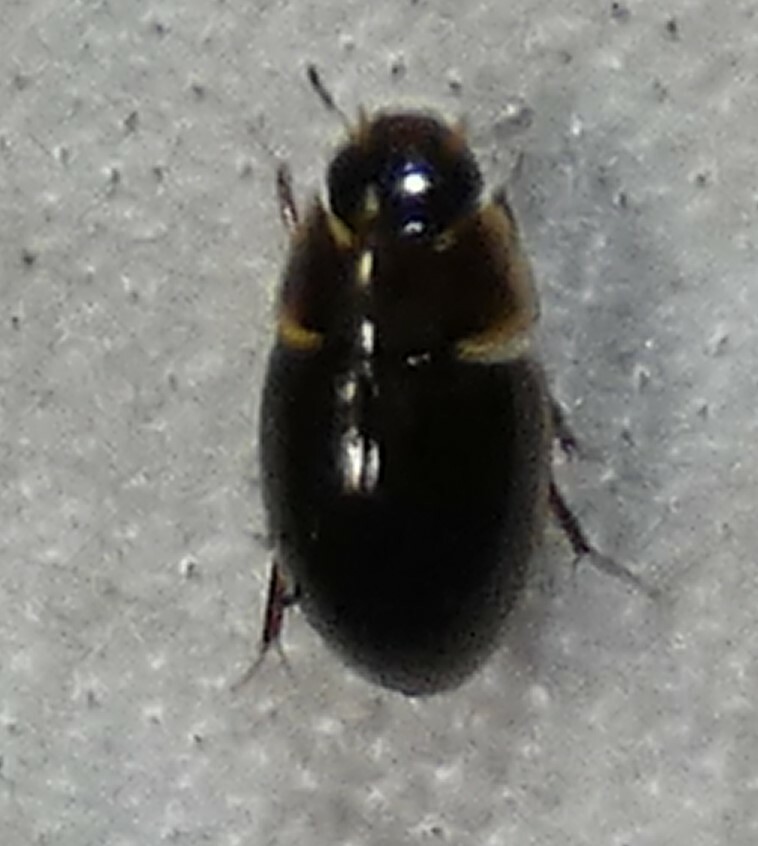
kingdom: Animalia
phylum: Arthropoda
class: Insecta
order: Coleoptera
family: Hydrophilidae
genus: Enochrus
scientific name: Enochrus
